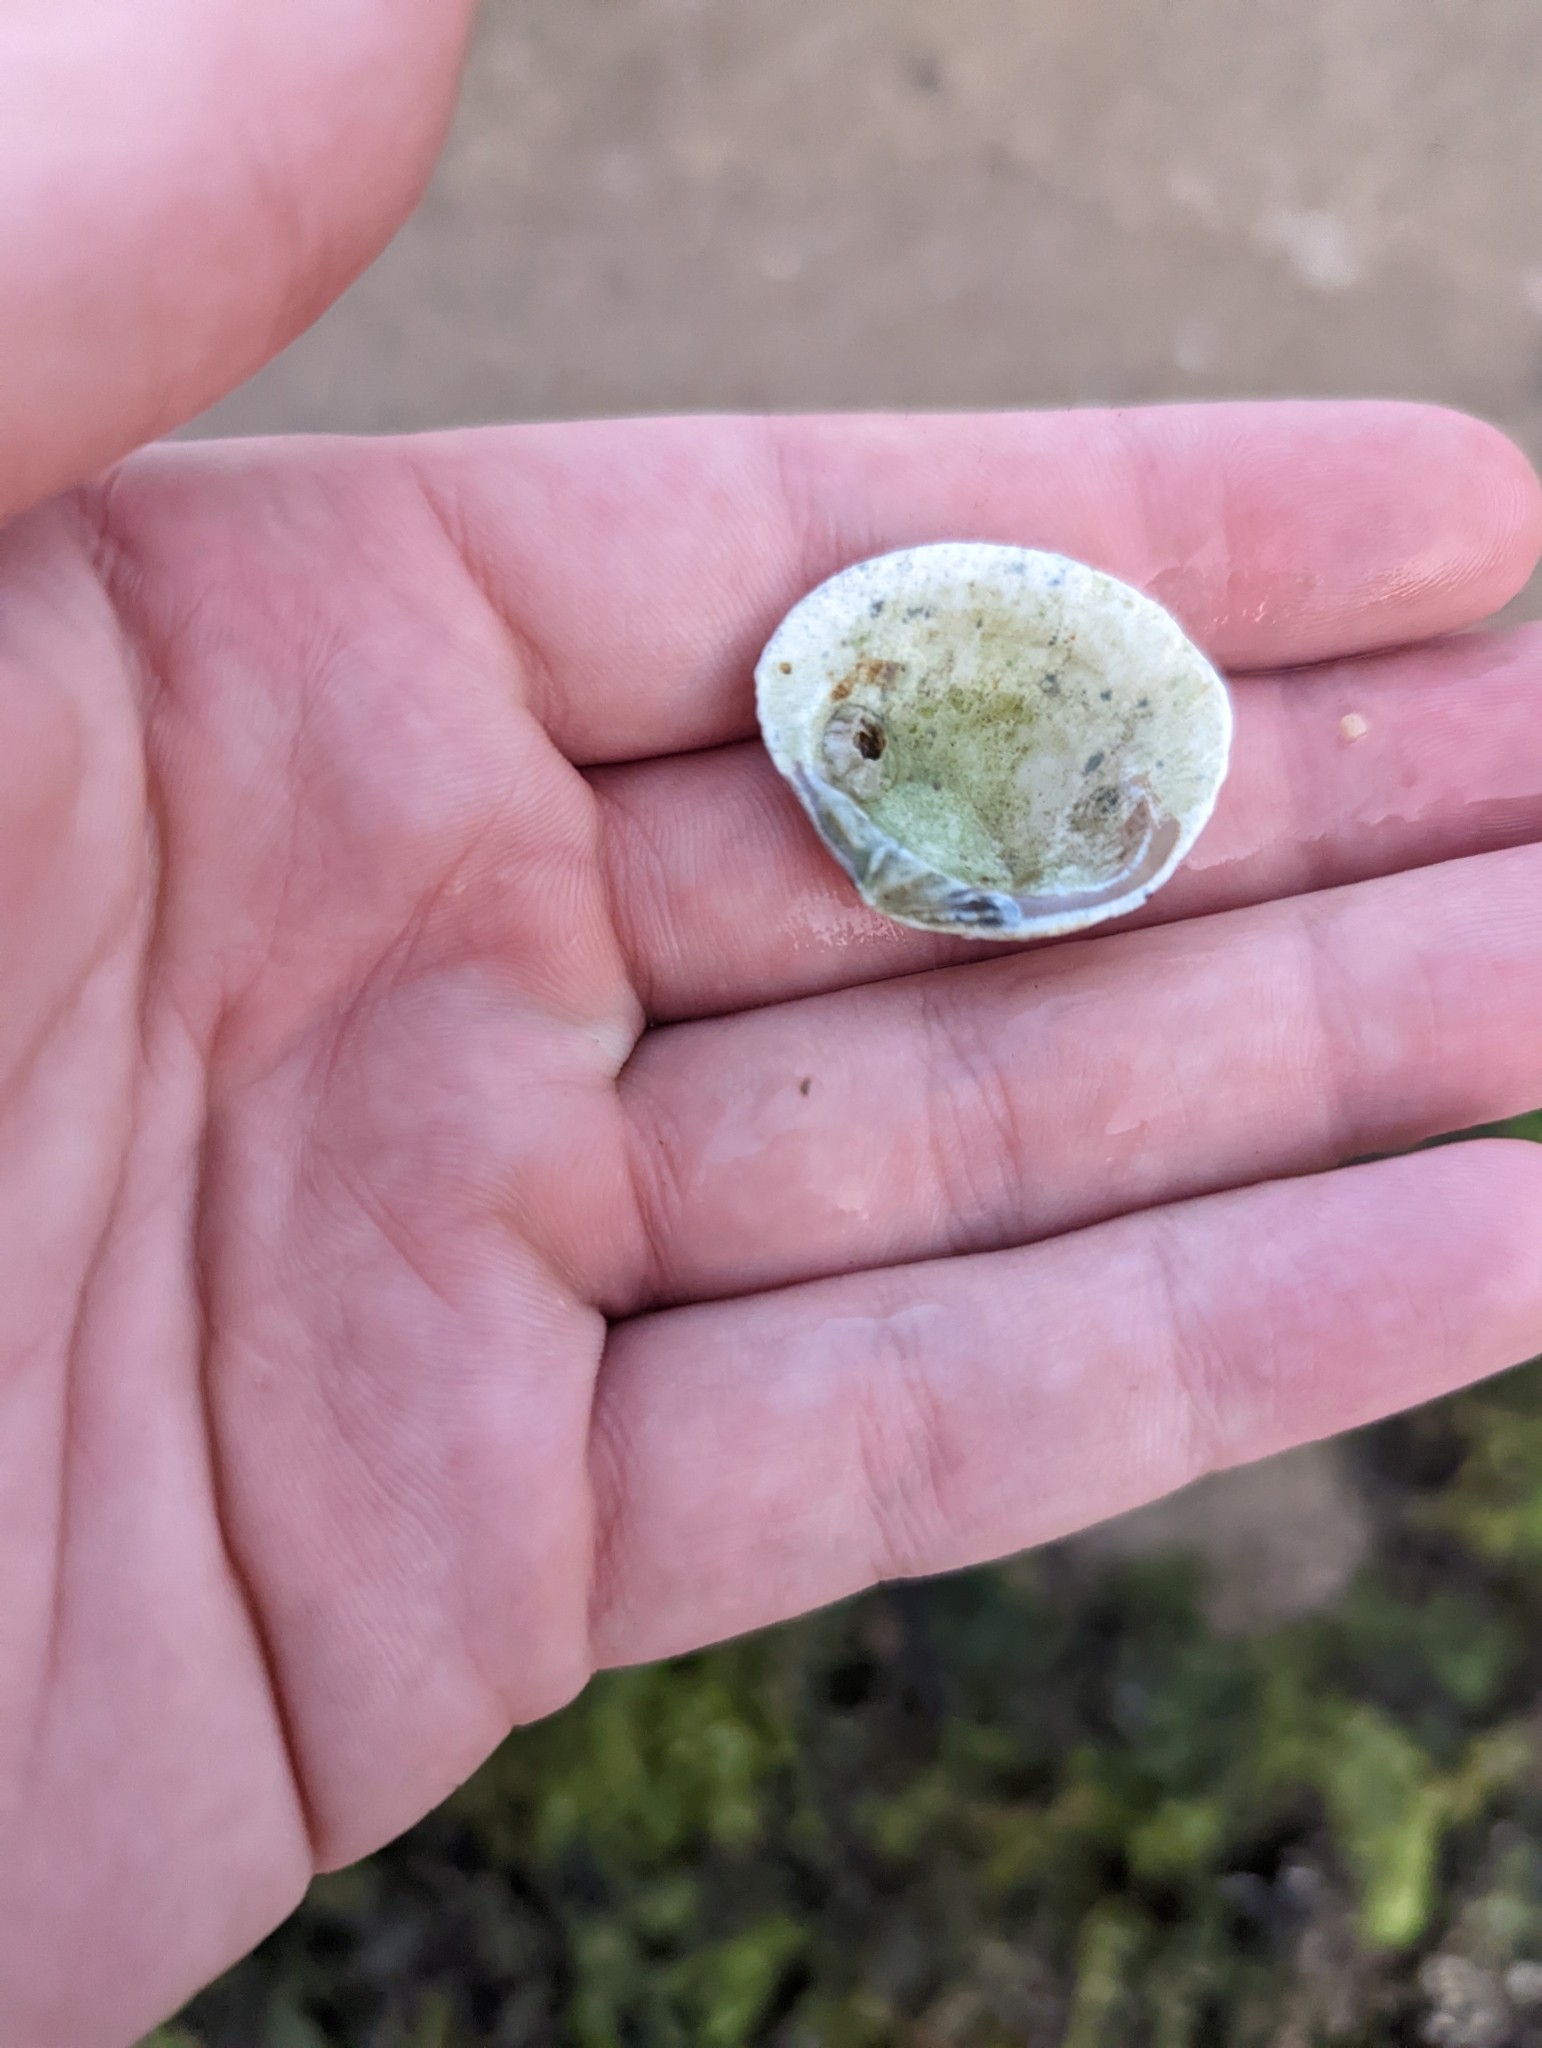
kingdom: Animalia
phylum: Mollusca
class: Bivalvia
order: Venerida
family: Veneridae
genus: Gafrarium
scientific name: Gafrarium pectinatum
